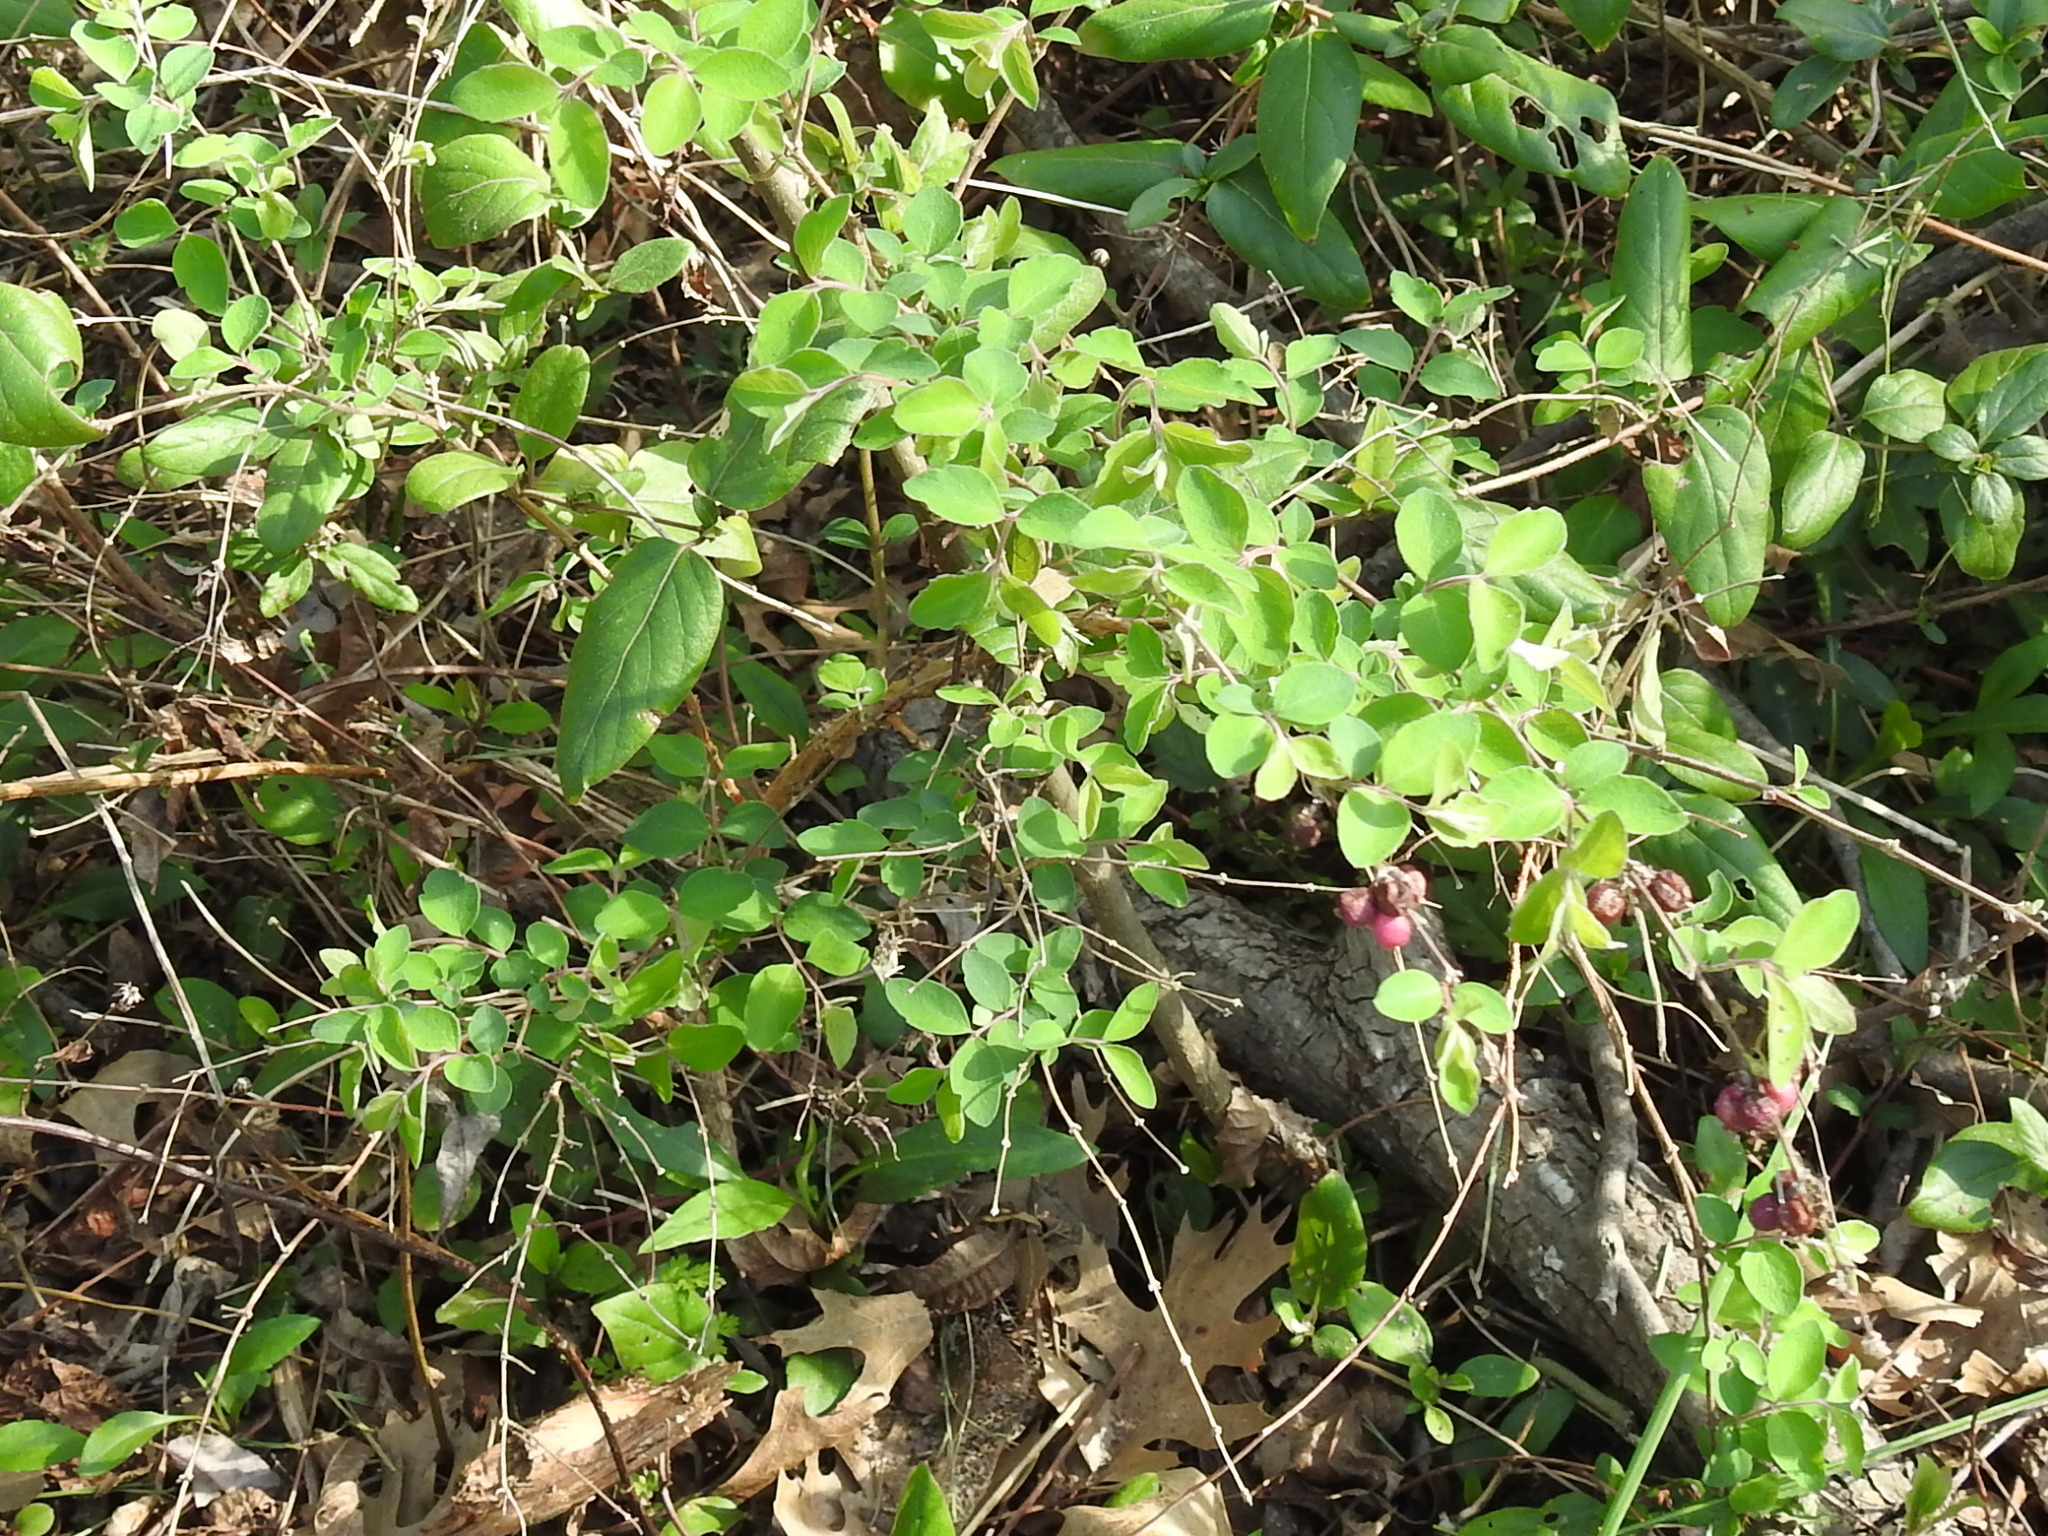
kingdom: Plantae
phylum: Tracheophyta
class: Magnoliopsida
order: Dipsacales
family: Caprifoliaceae
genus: Symphoricarpos
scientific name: Symphoricarpos orbiculatus
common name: Coralberry
